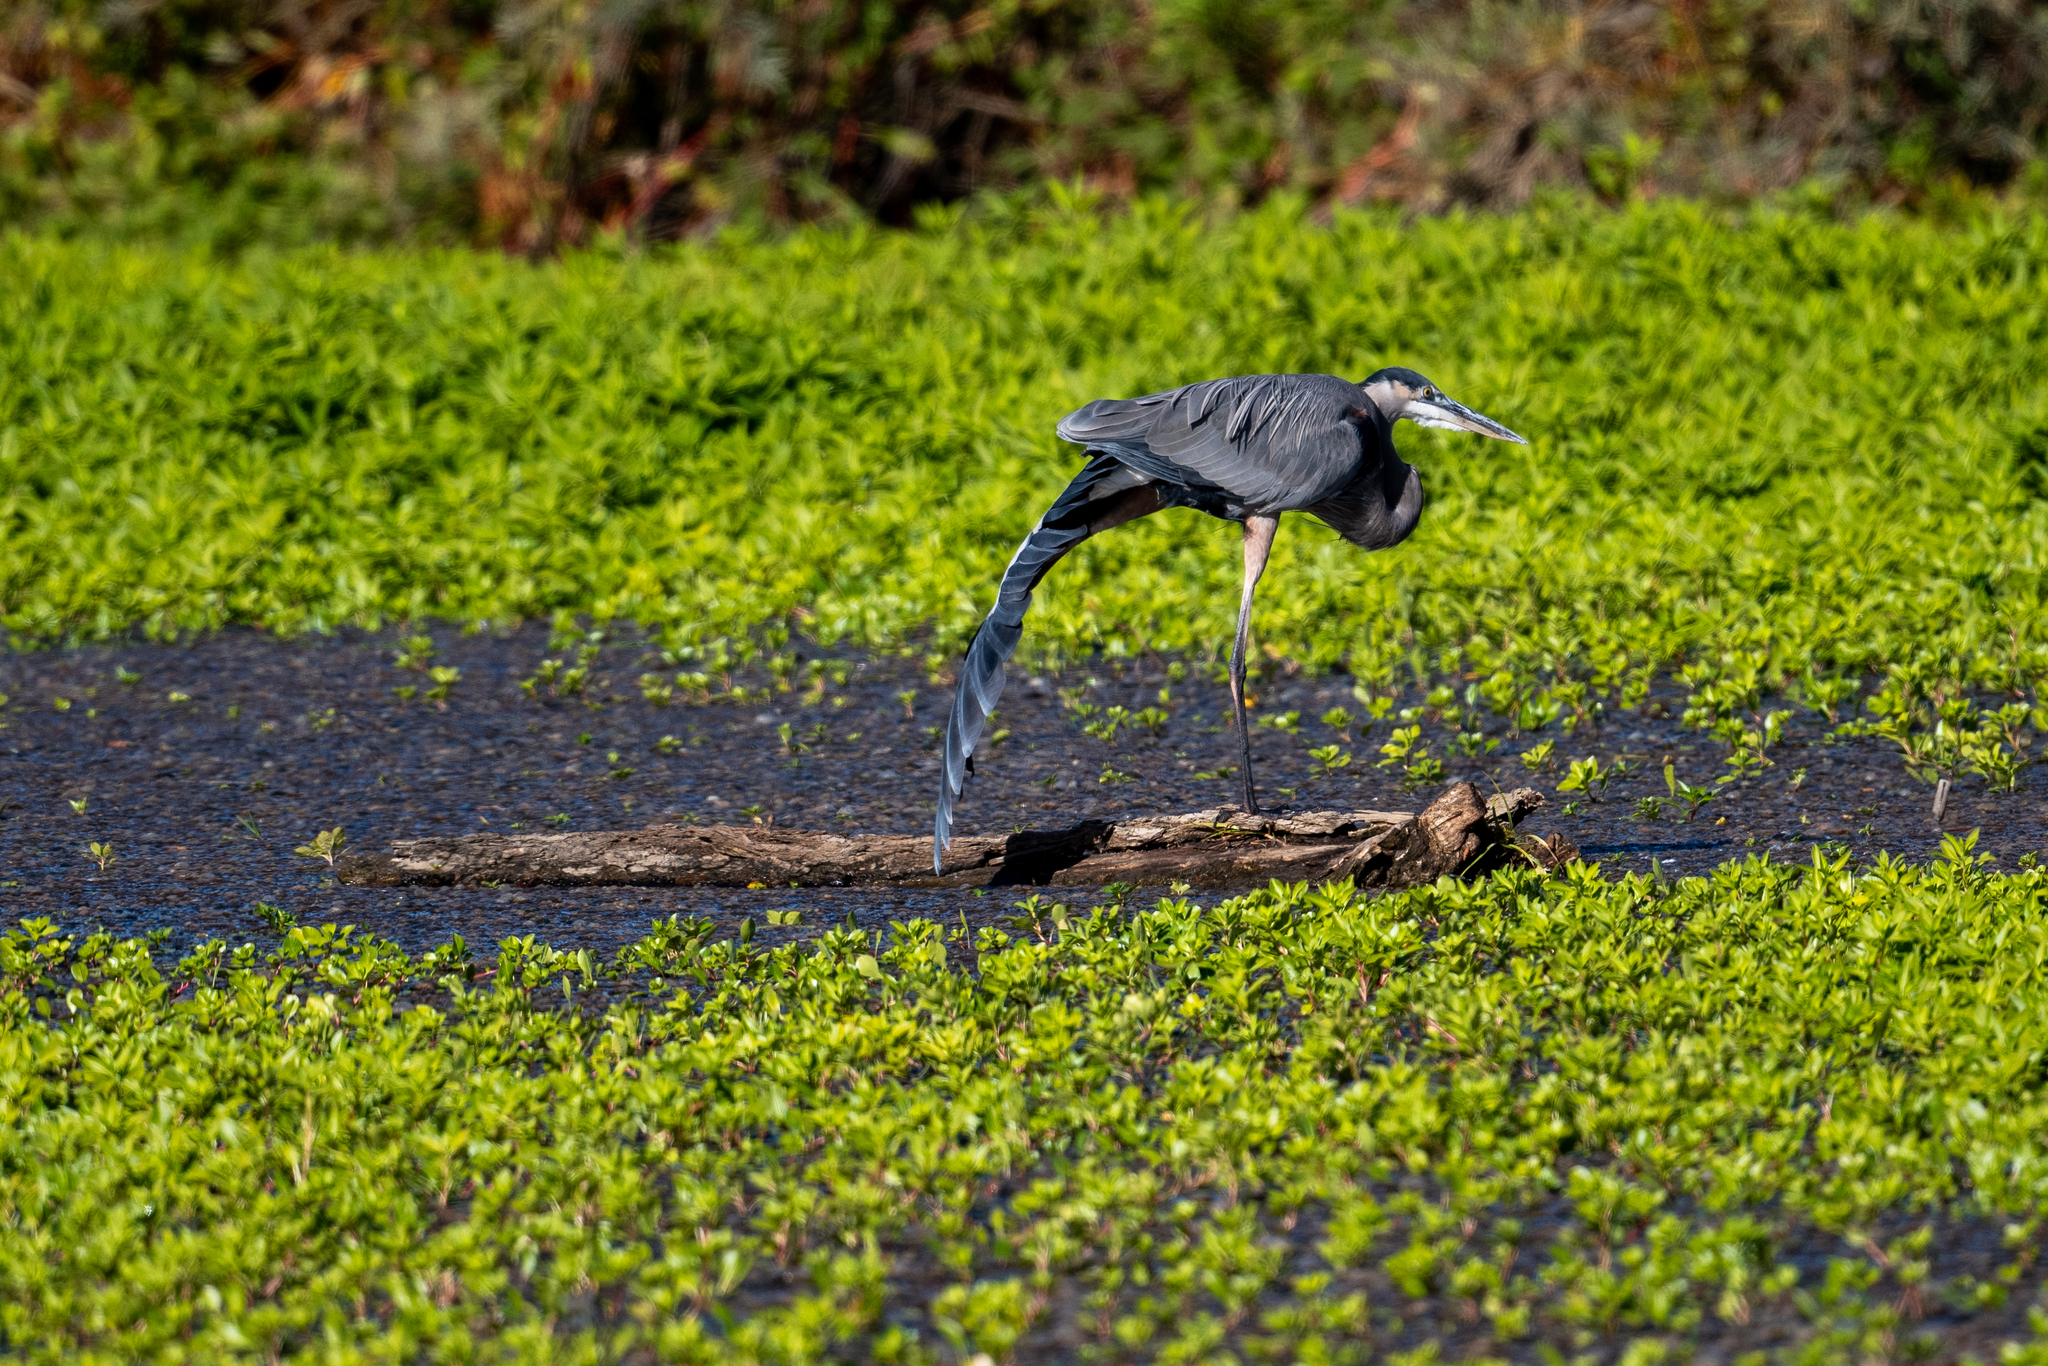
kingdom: Animalia
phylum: Chordata
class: Aves
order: Pelecaniformes
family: Ardeidae
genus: Ardea
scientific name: Ardea herodias
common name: Great blue heron
